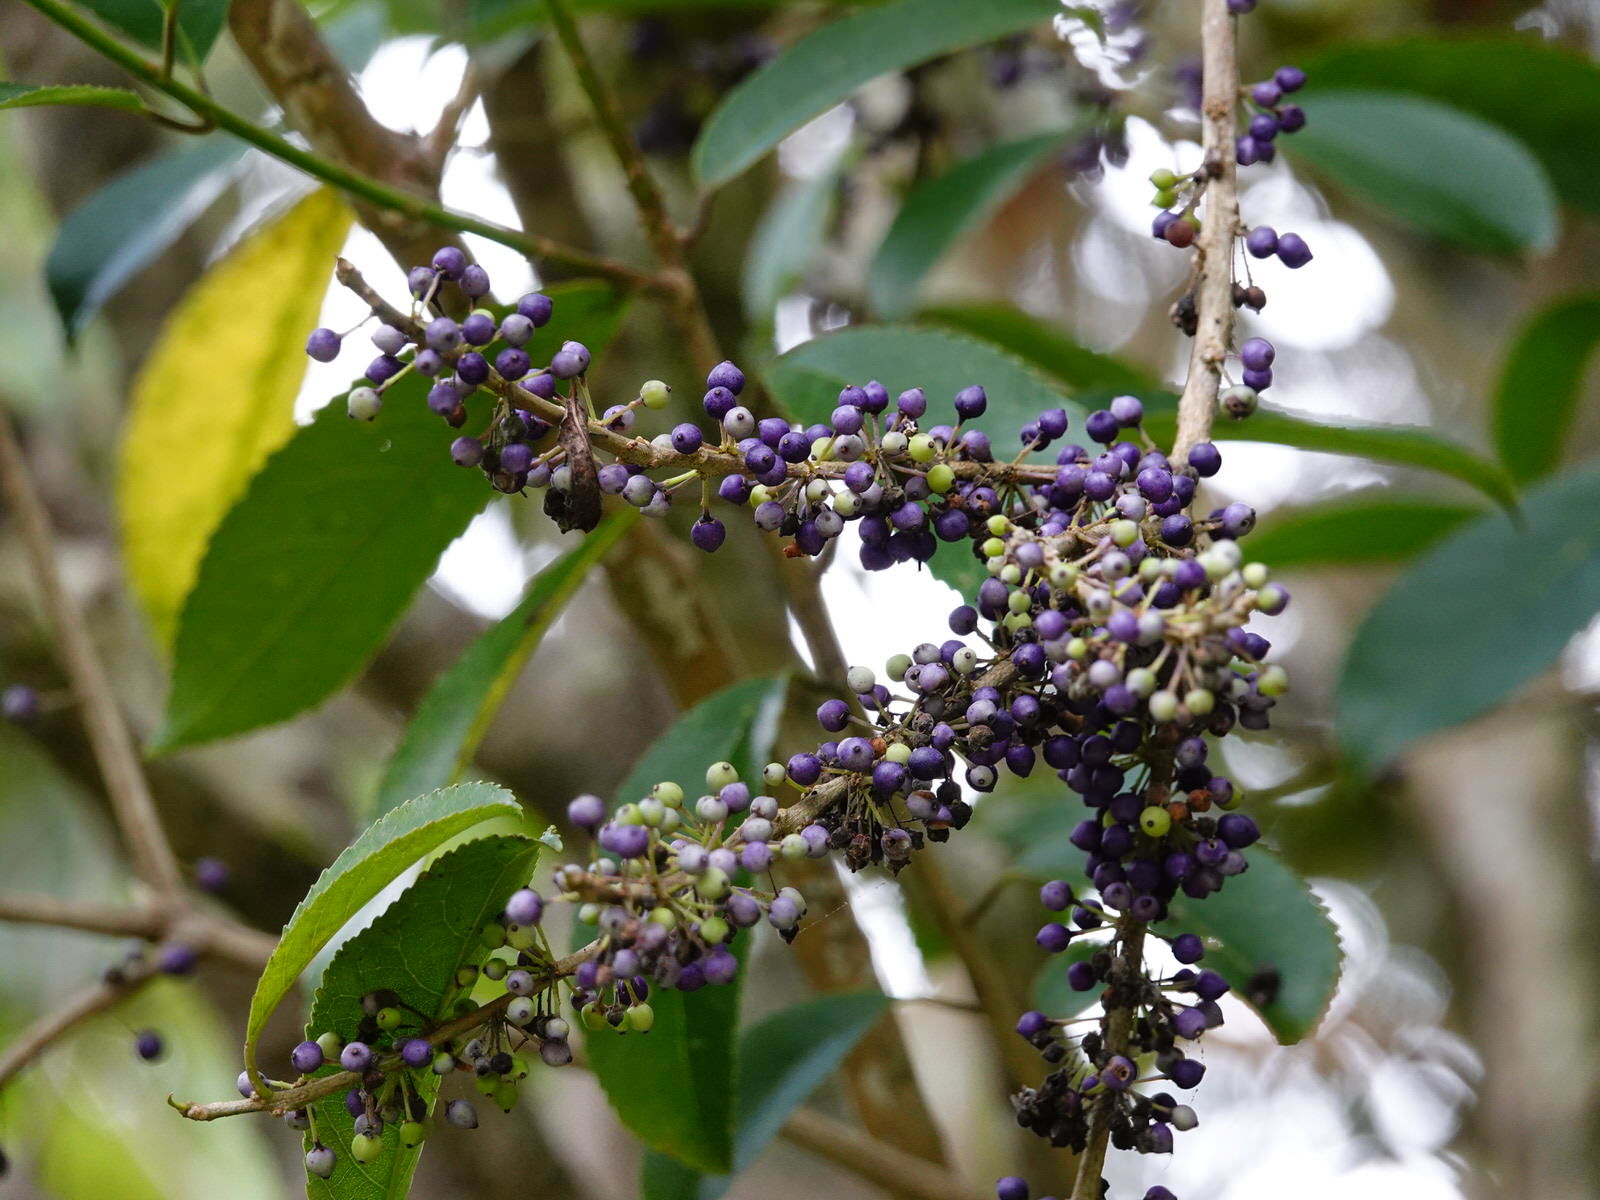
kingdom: Plantae
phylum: Tracheophyta
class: Magnoliopsida
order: Malpighiales
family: Violaceae
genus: Melicytus
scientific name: Melicytus ramiflorus
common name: Mahoe
